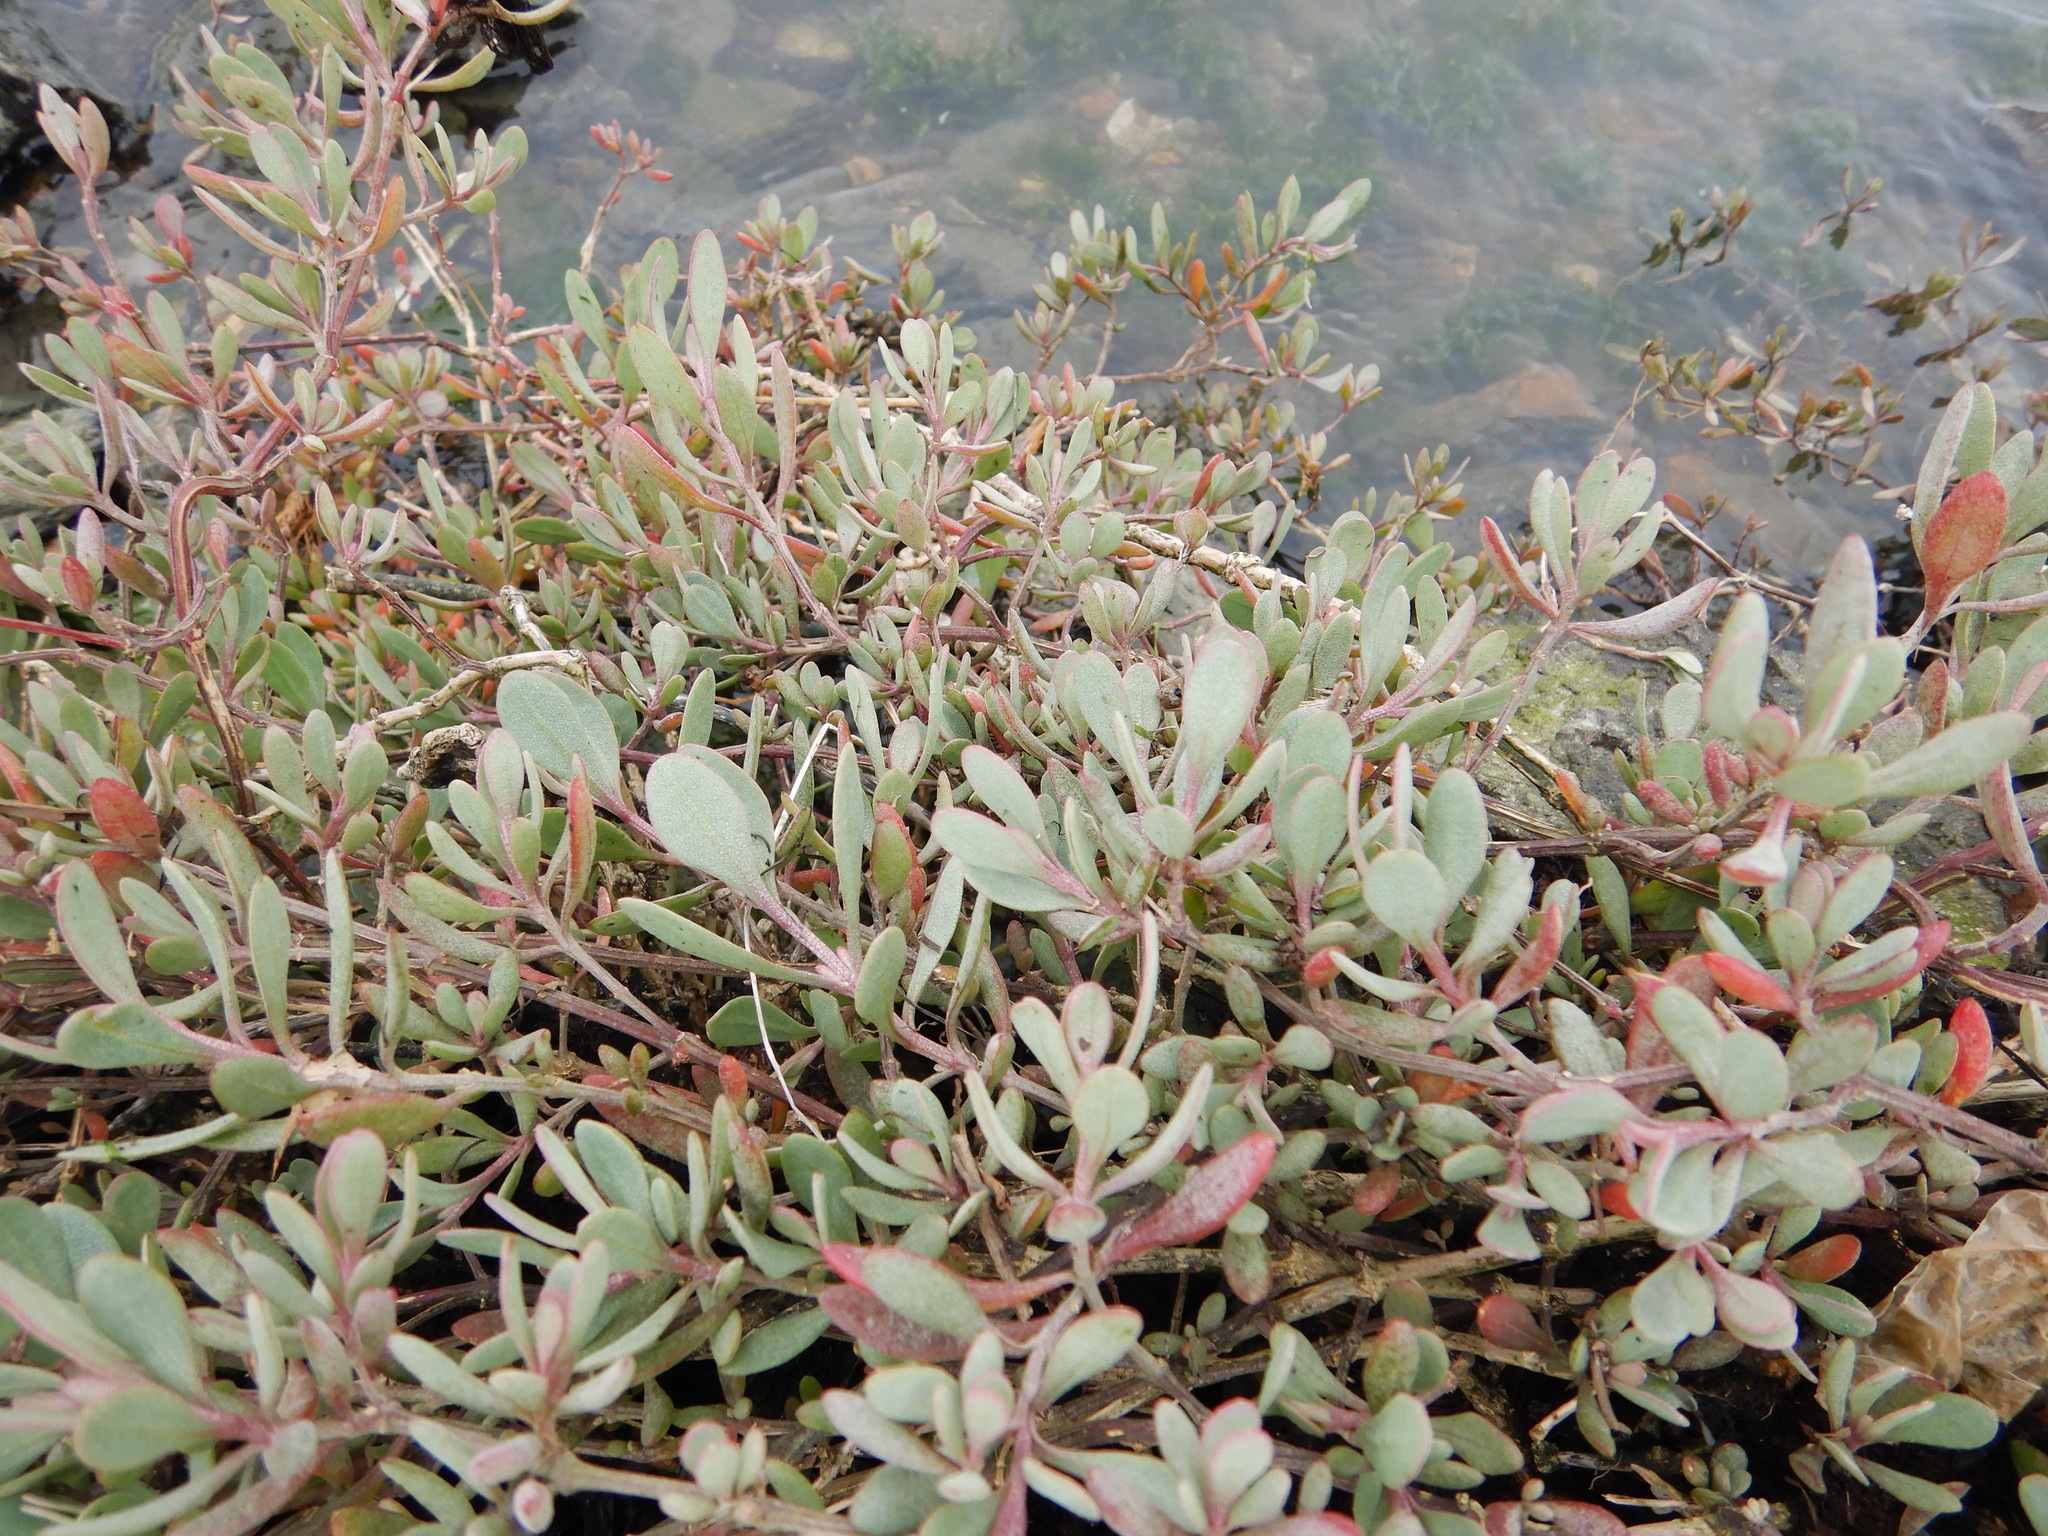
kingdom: Plantae
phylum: Tracheophyta
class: Magnoliopsida
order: Caryophyllales
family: Amaranthaceae
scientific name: Amaranthaceae
